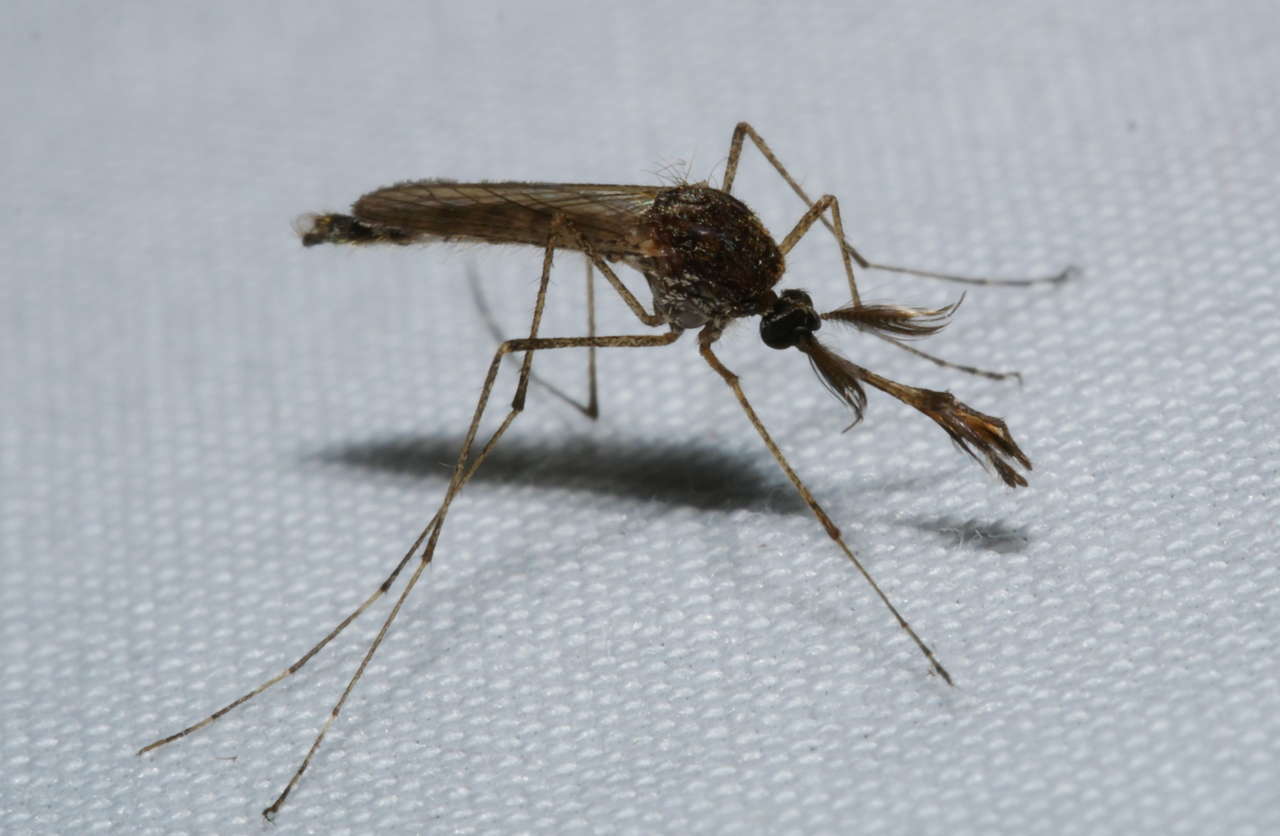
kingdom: Animalia
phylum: Arthropoda
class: Insecta
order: Diptera
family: Culicidae
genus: Aedes
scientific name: Aedes
